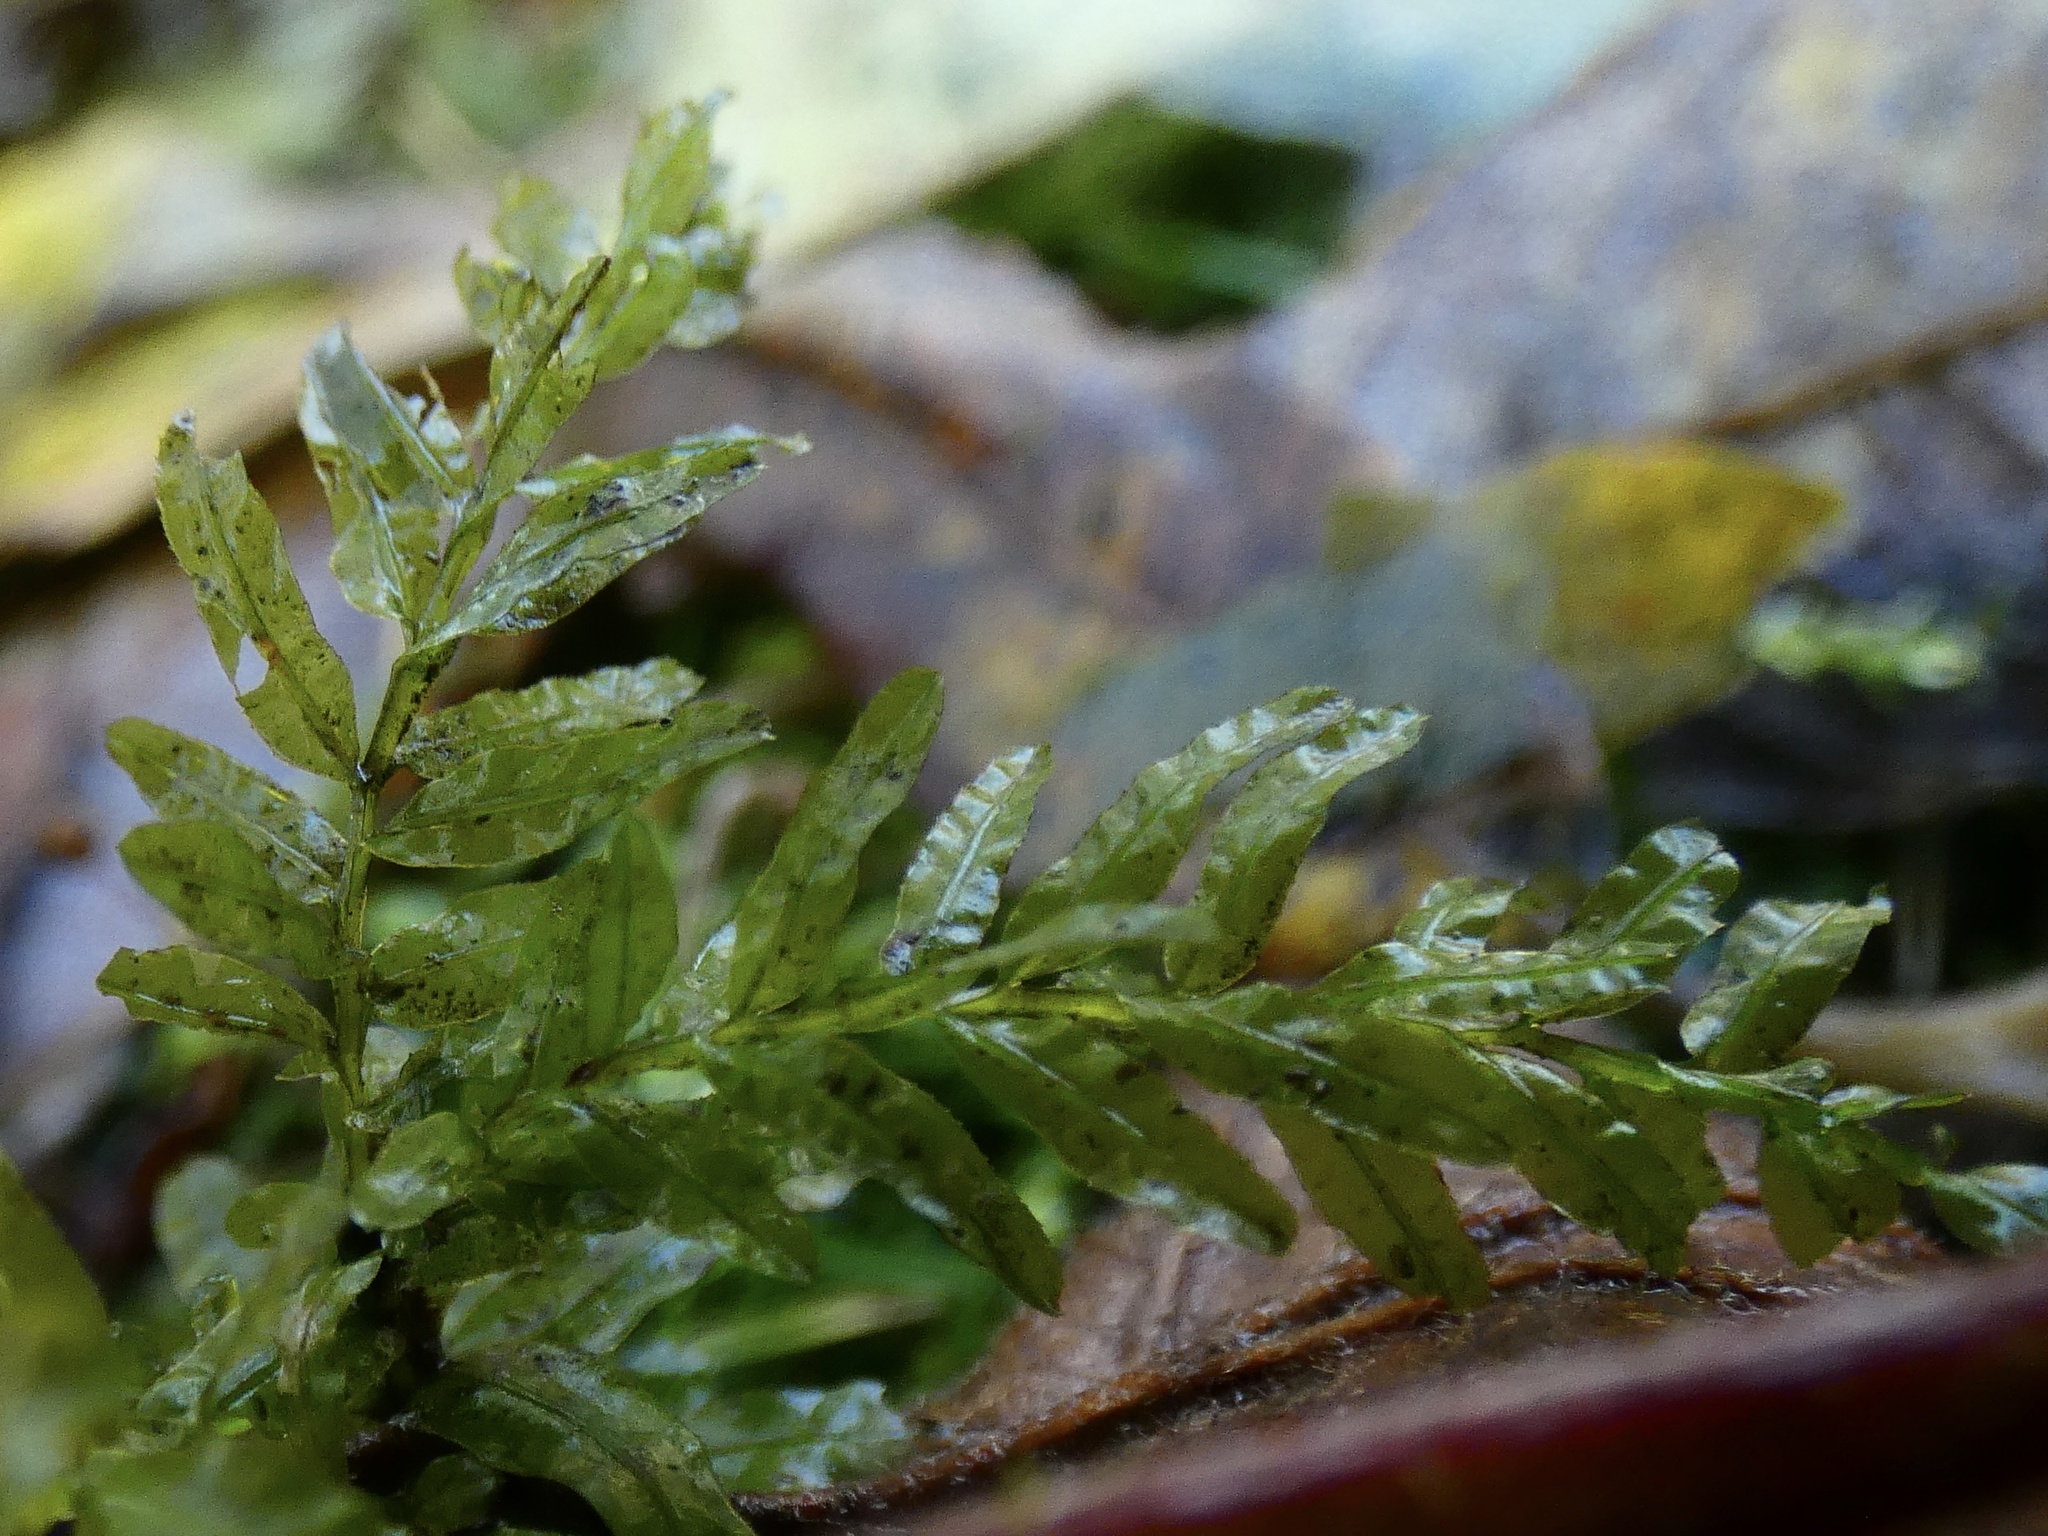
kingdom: Plantae
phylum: Bryophyta
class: Bryopsida
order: Bryales
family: Mniaceae
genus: Plagiomnium
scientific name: Plagiomnium undulatum
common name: Hart's-tongue thyme-moss
